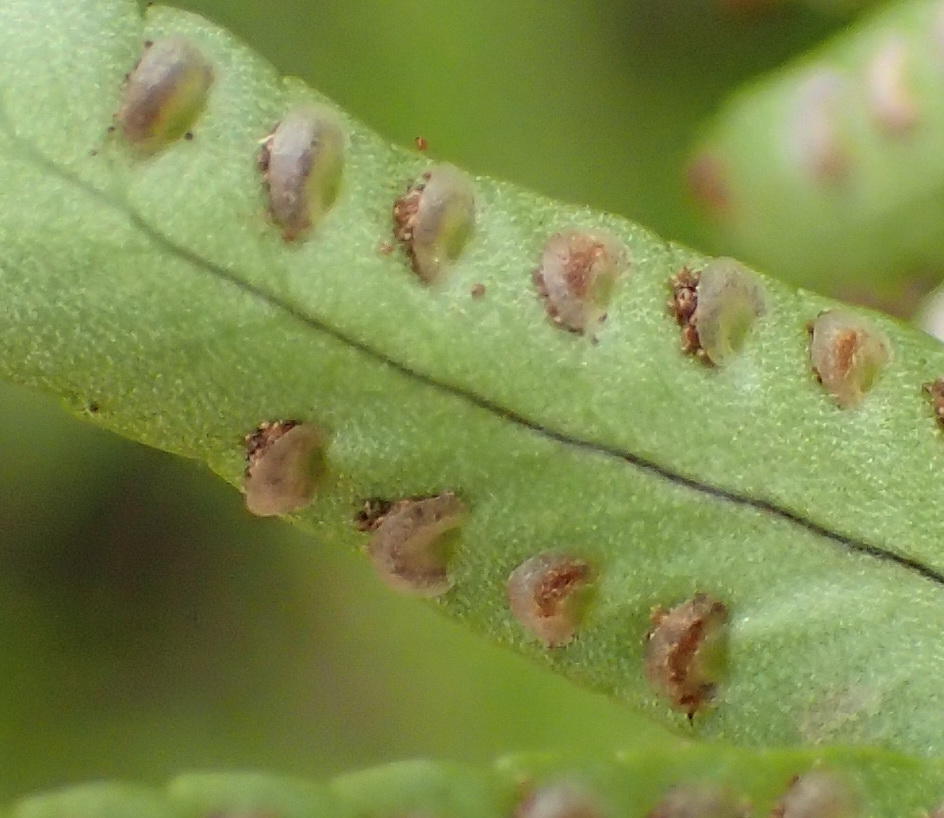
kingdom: Plantae
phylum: Tracheophyta
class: Polypodiopsida
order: Polypodiales
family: Nephrolepidaceae
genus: Nephrolepis
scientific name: Nephrolepis cordifolia
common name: Narrow swordfern
